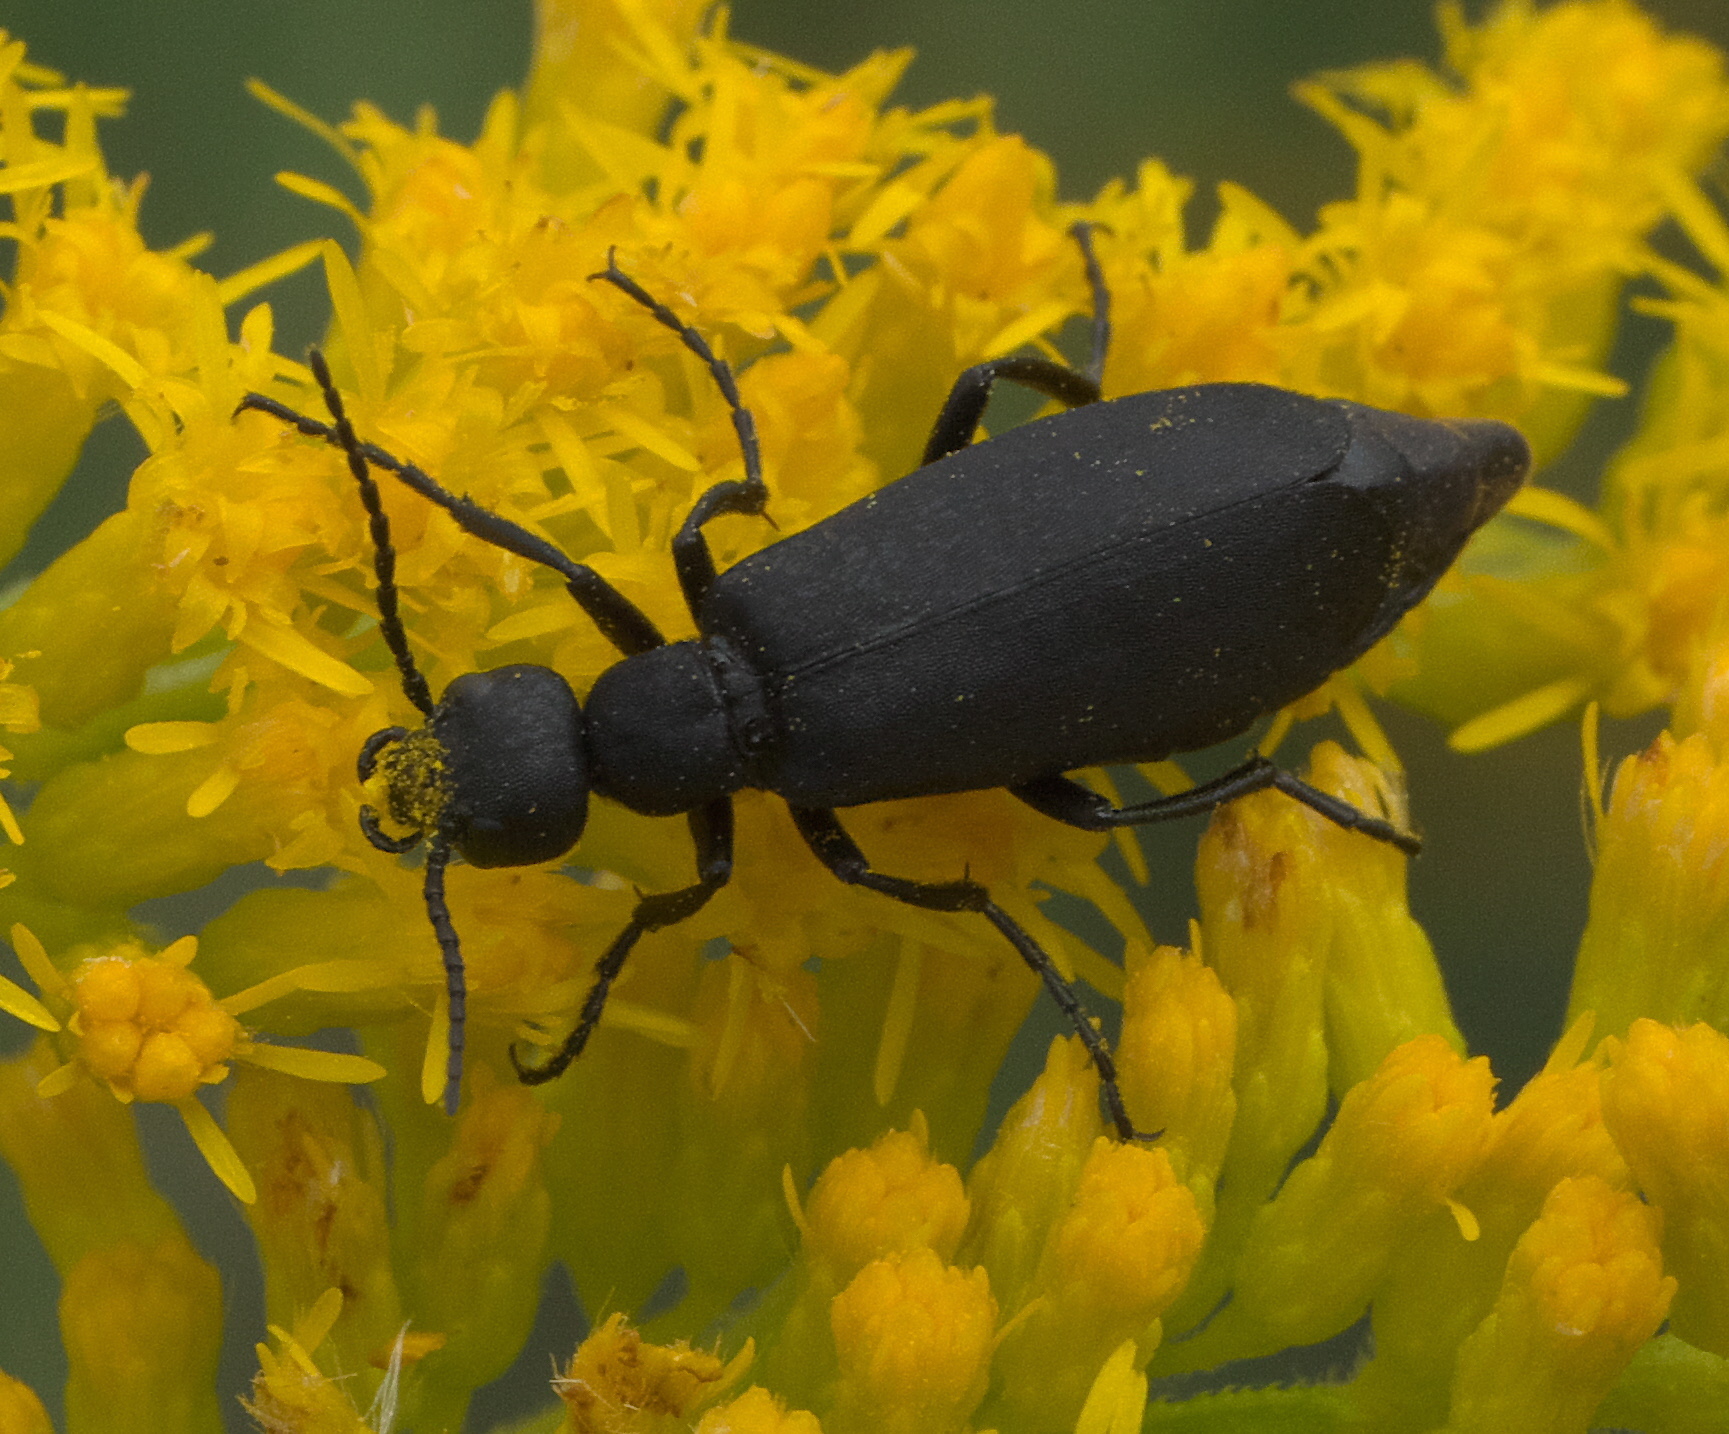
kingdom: Animalia
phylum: Arthropoda
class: Insecta
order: Coleoptera
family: Meloidae
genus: Epicauta
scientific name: Epicauta pensylvanica
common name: Black blister beetle
